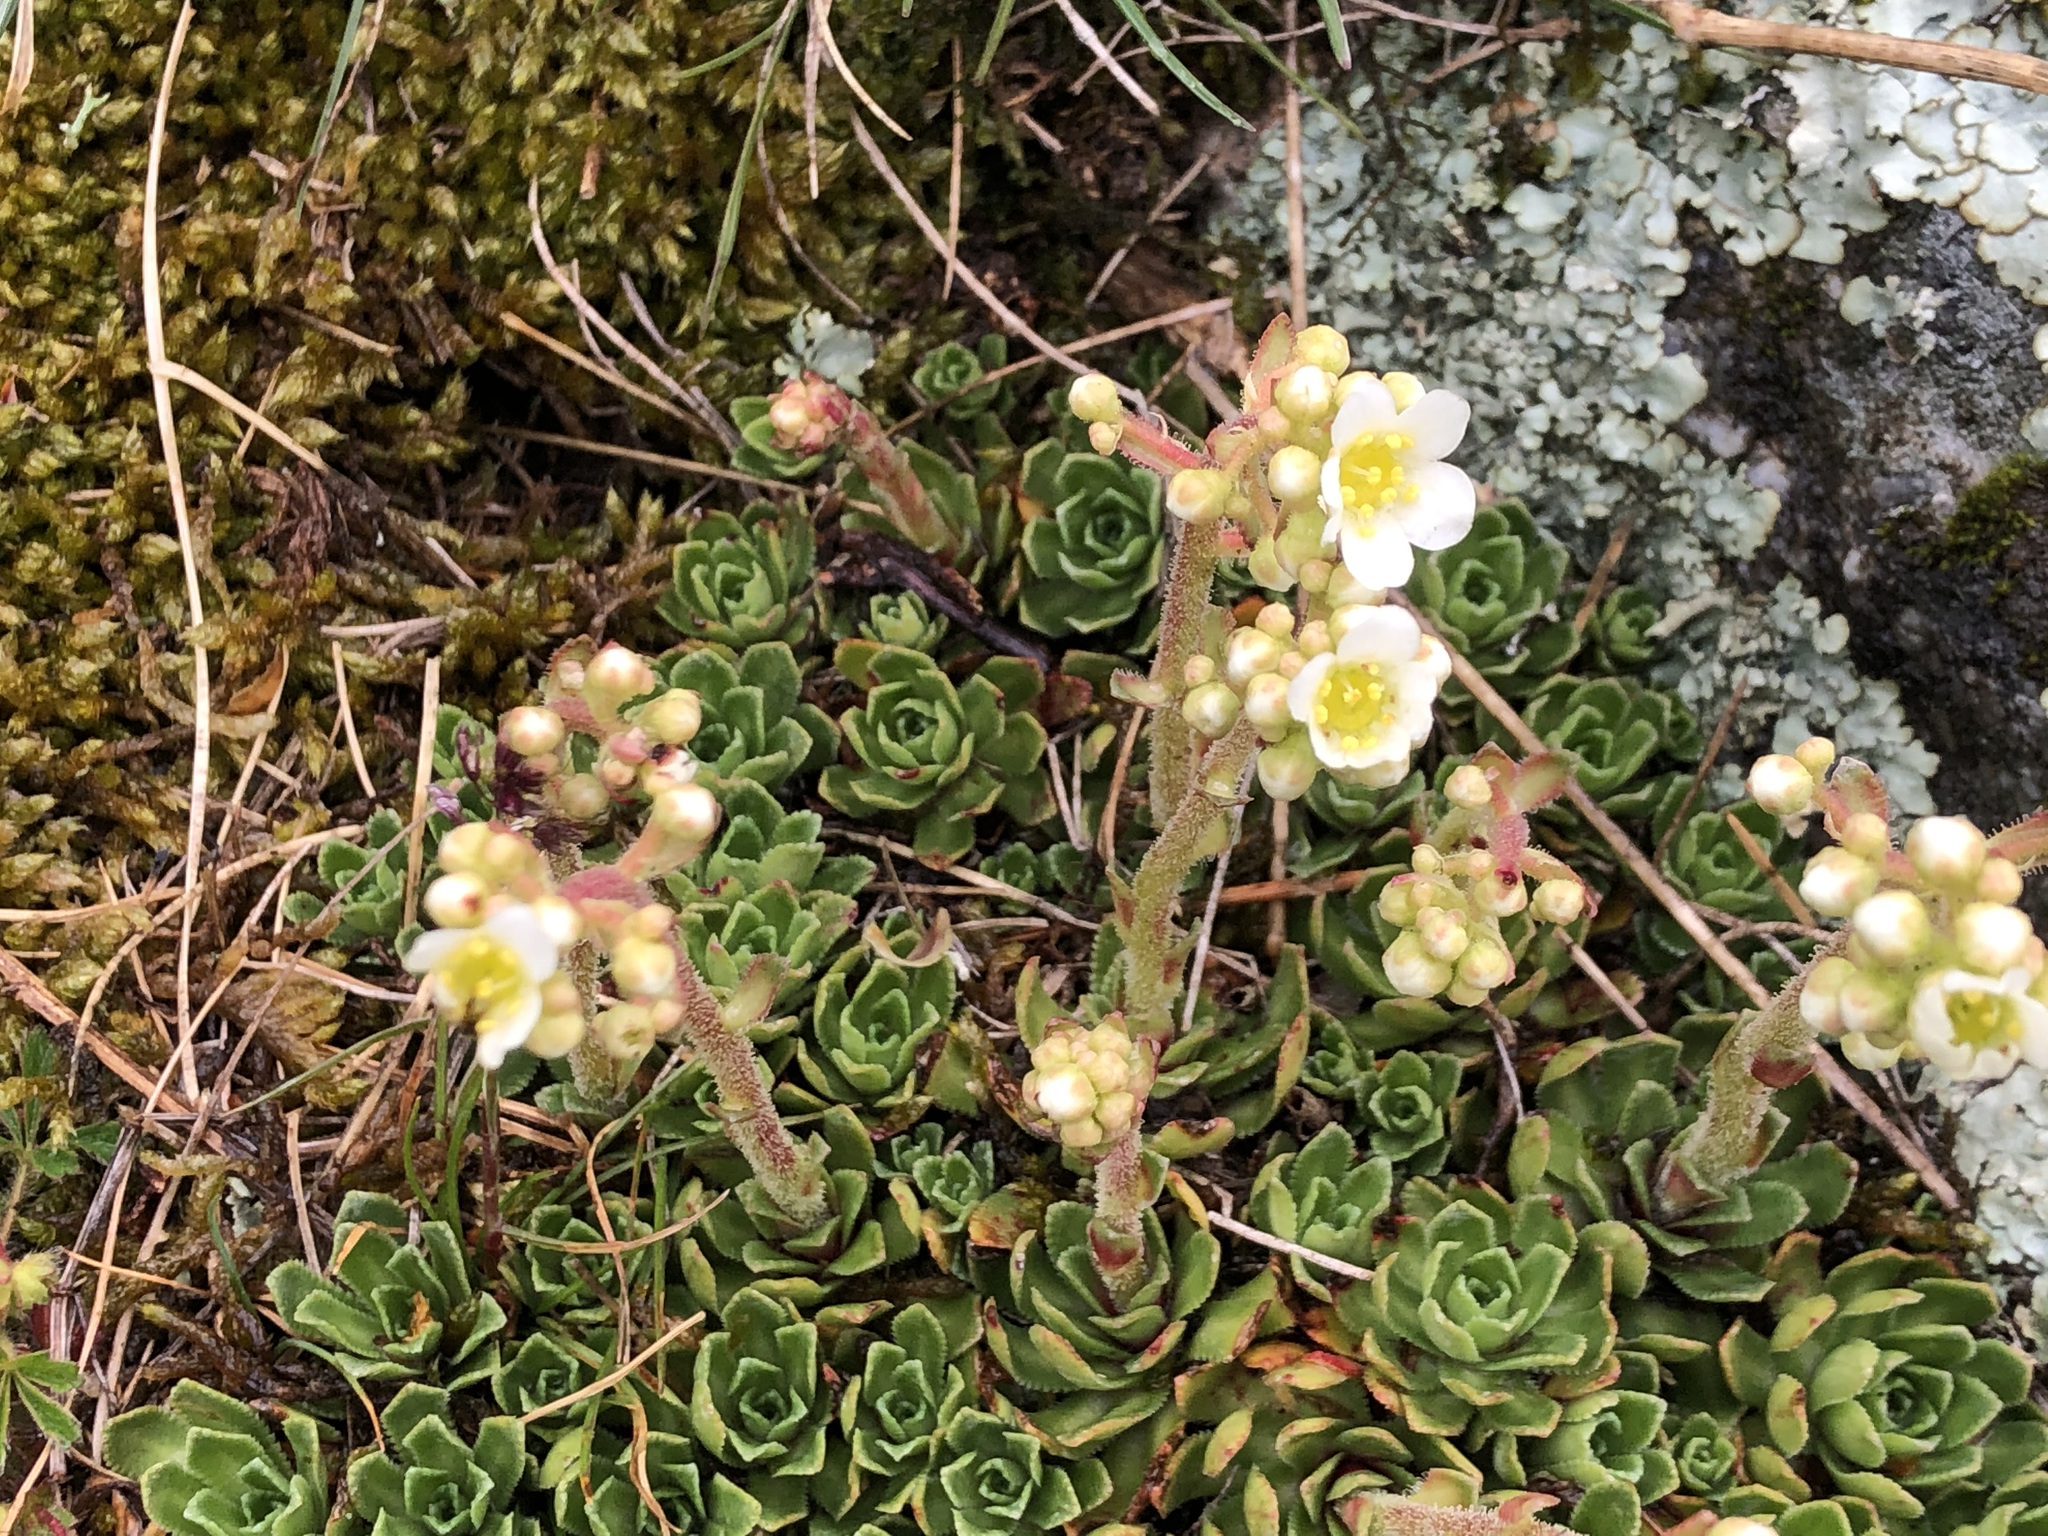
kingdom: Plantae
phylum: Tracheophyta
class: Magnoliopsida
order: Saxifragales
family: Saxifragaceae
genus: Saxifraga
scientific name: Saxifraga paniculata
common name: Livelong saxifrage
